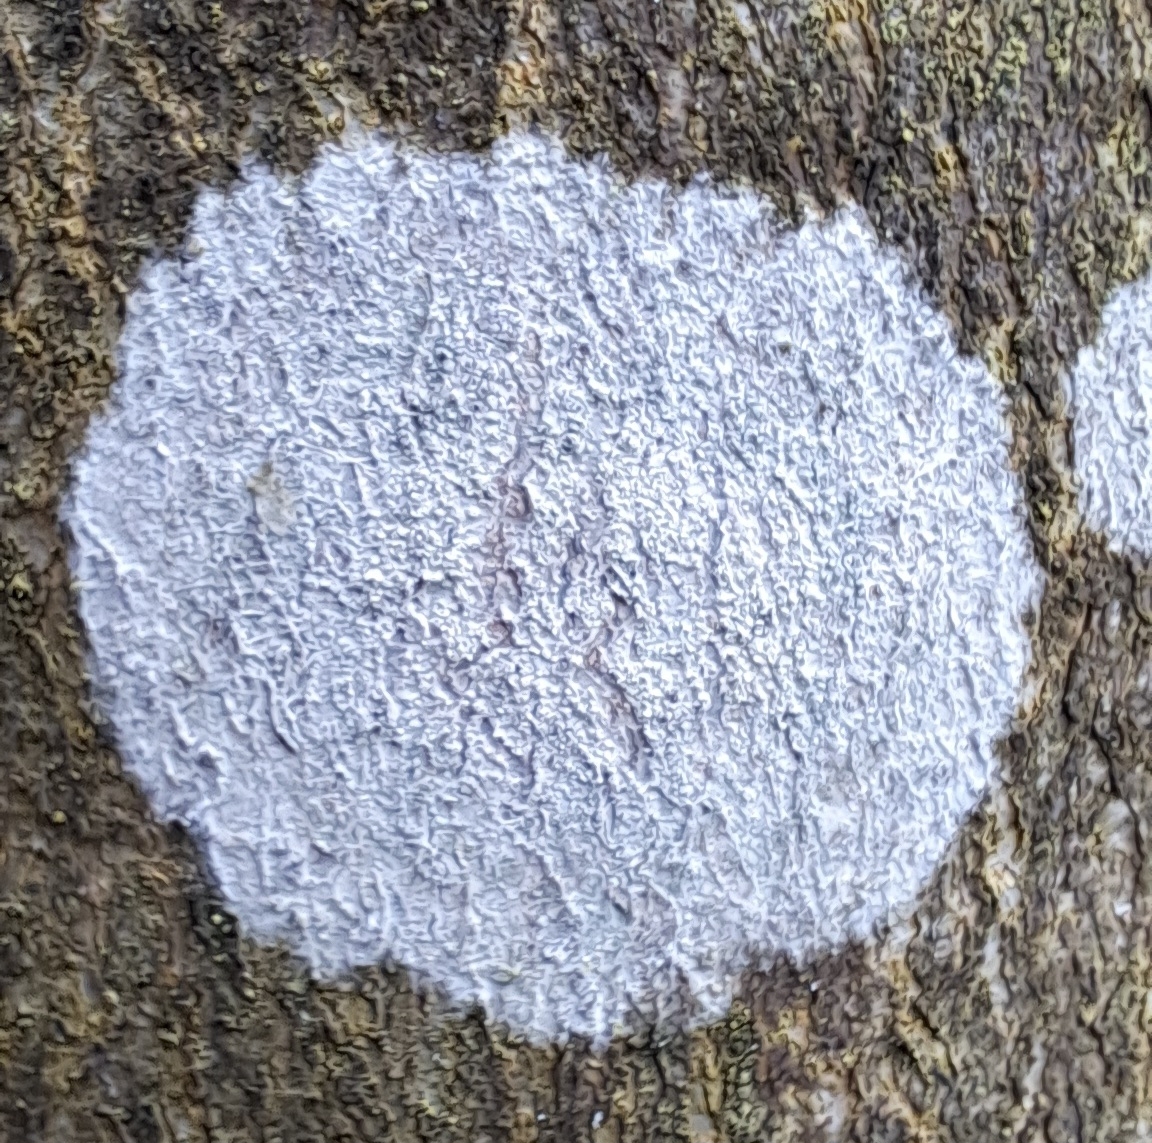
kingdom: Fungi
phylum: Ascomycota
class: Lecanoromycetes
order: Ostropales
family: Phlyctidaceae
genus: Phlyctis
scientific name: Phlyctis argena
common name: Whitewash lichen
